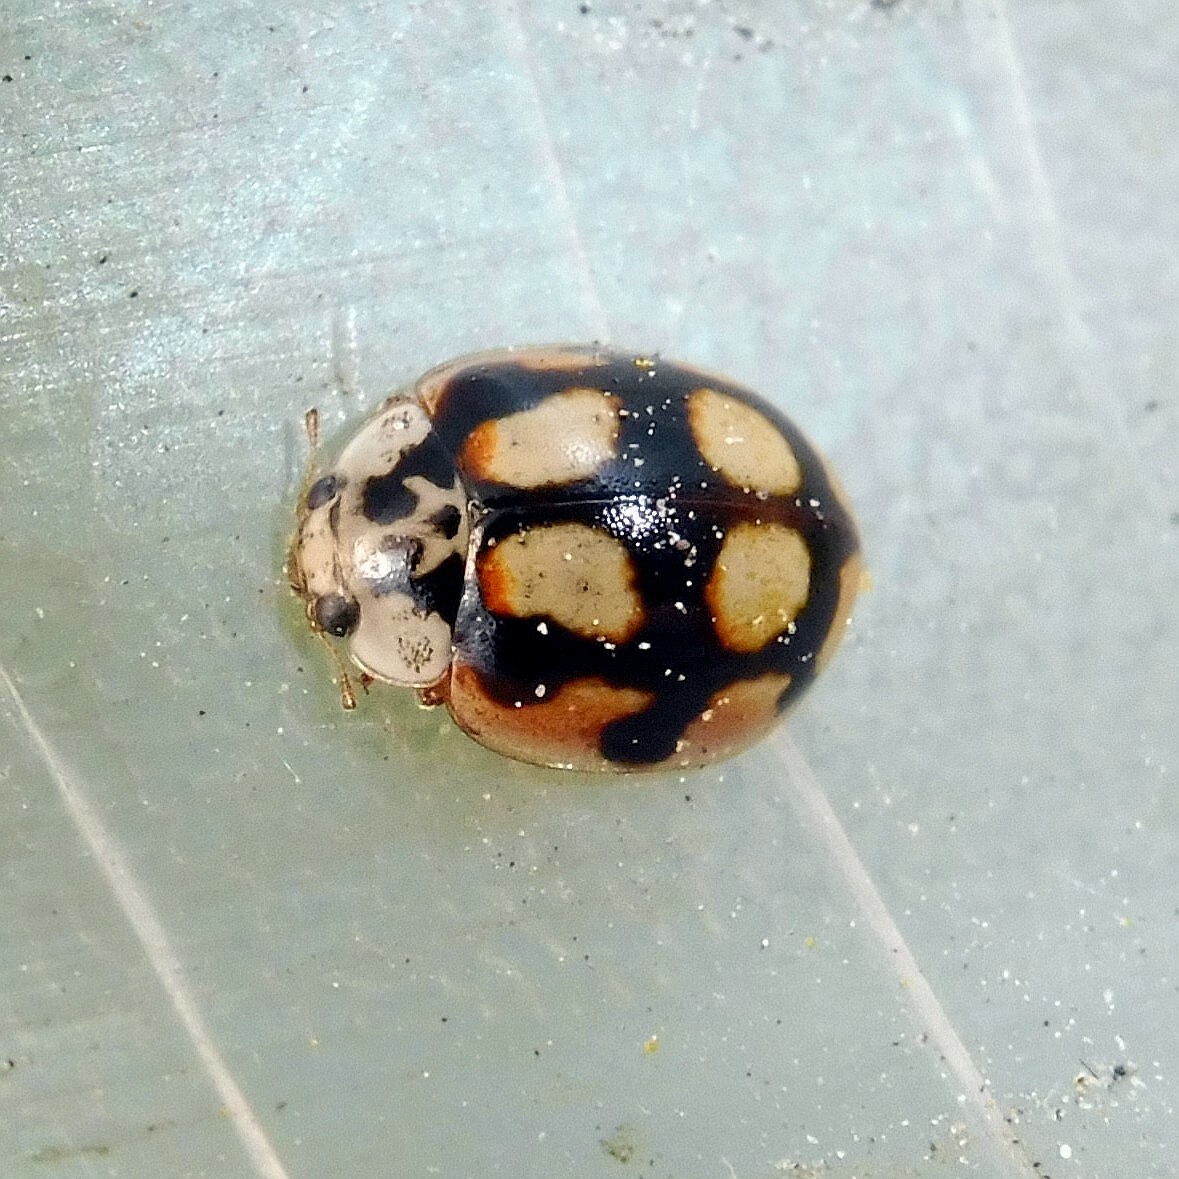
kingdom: Animalia
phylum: Arthropoda
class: Insecta
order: Coleoptera
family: Coccinellidae
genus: Adalia
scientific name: Adalia decempunctata
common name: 10-spot ladybird
